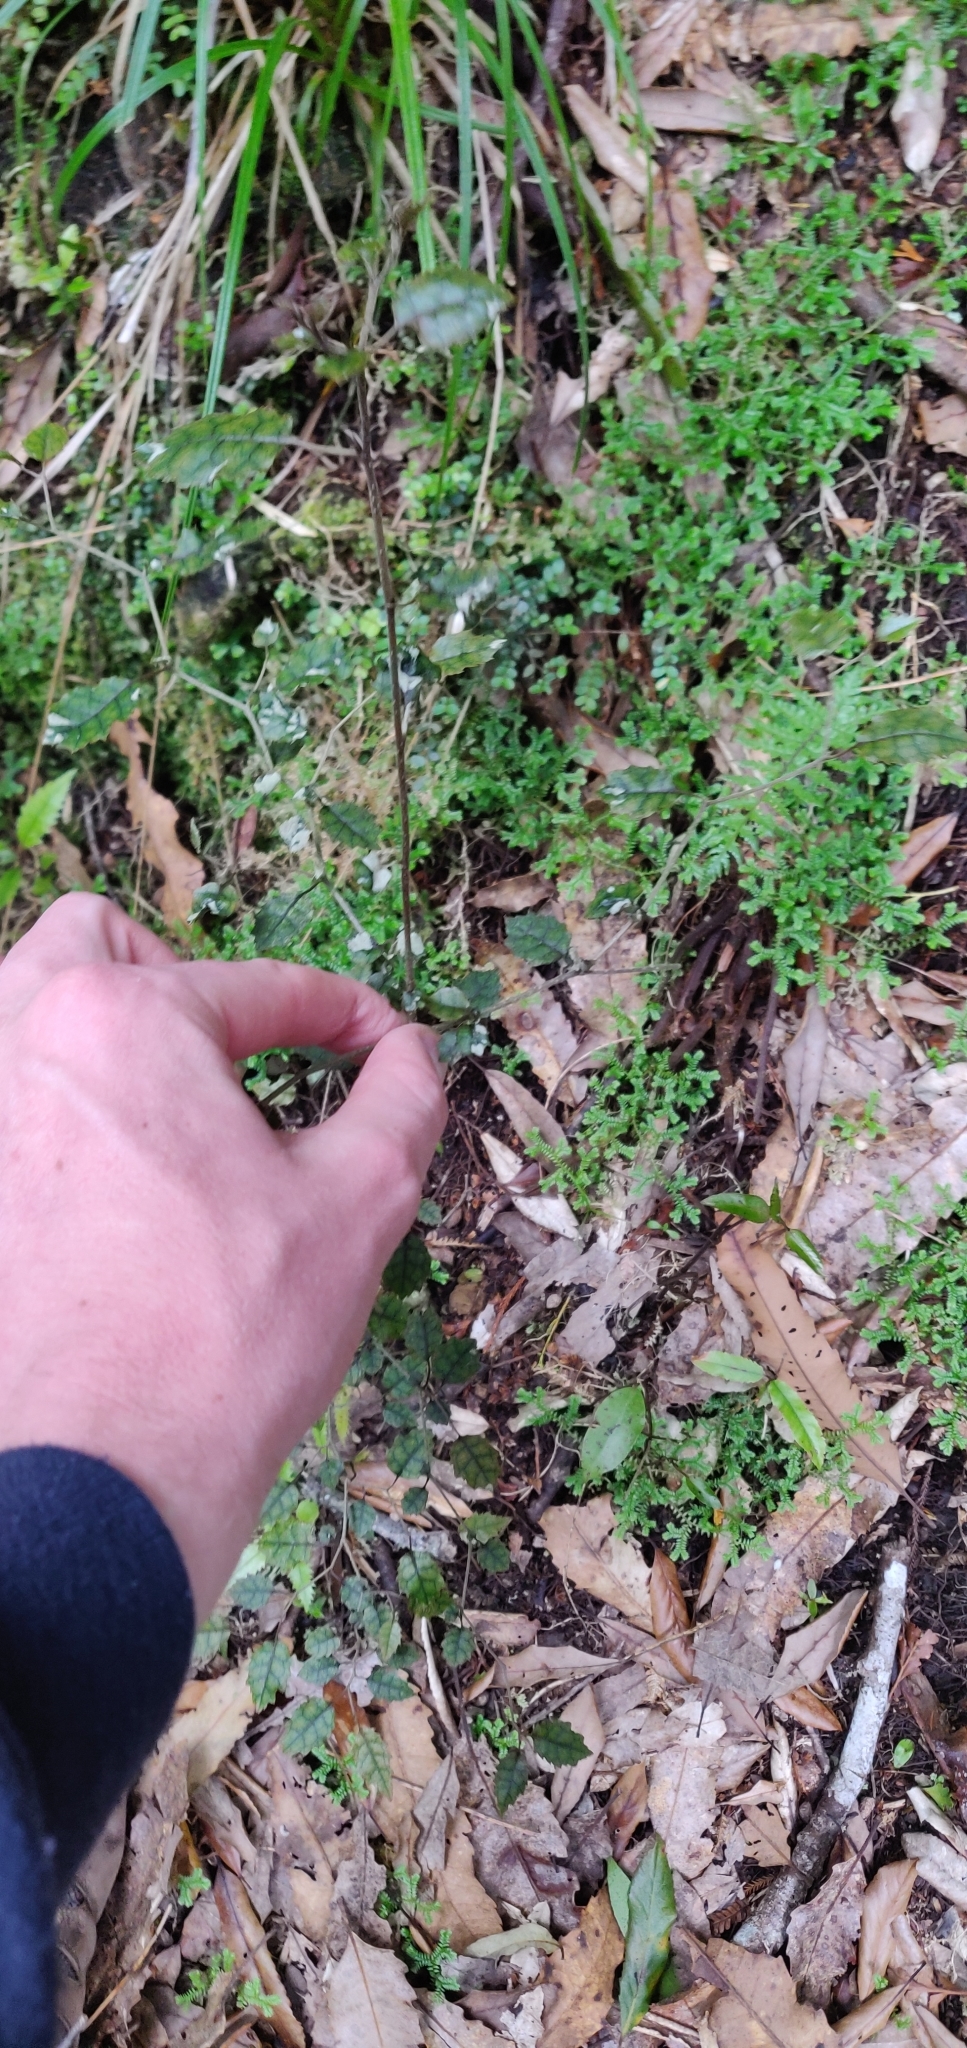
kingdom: Plantae
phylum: Tracheophyta
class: Magnoliopsida
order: Asterales
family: Rousseaceae
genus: Carpodetus
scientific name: Carpodetus serratus
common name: White mapau
